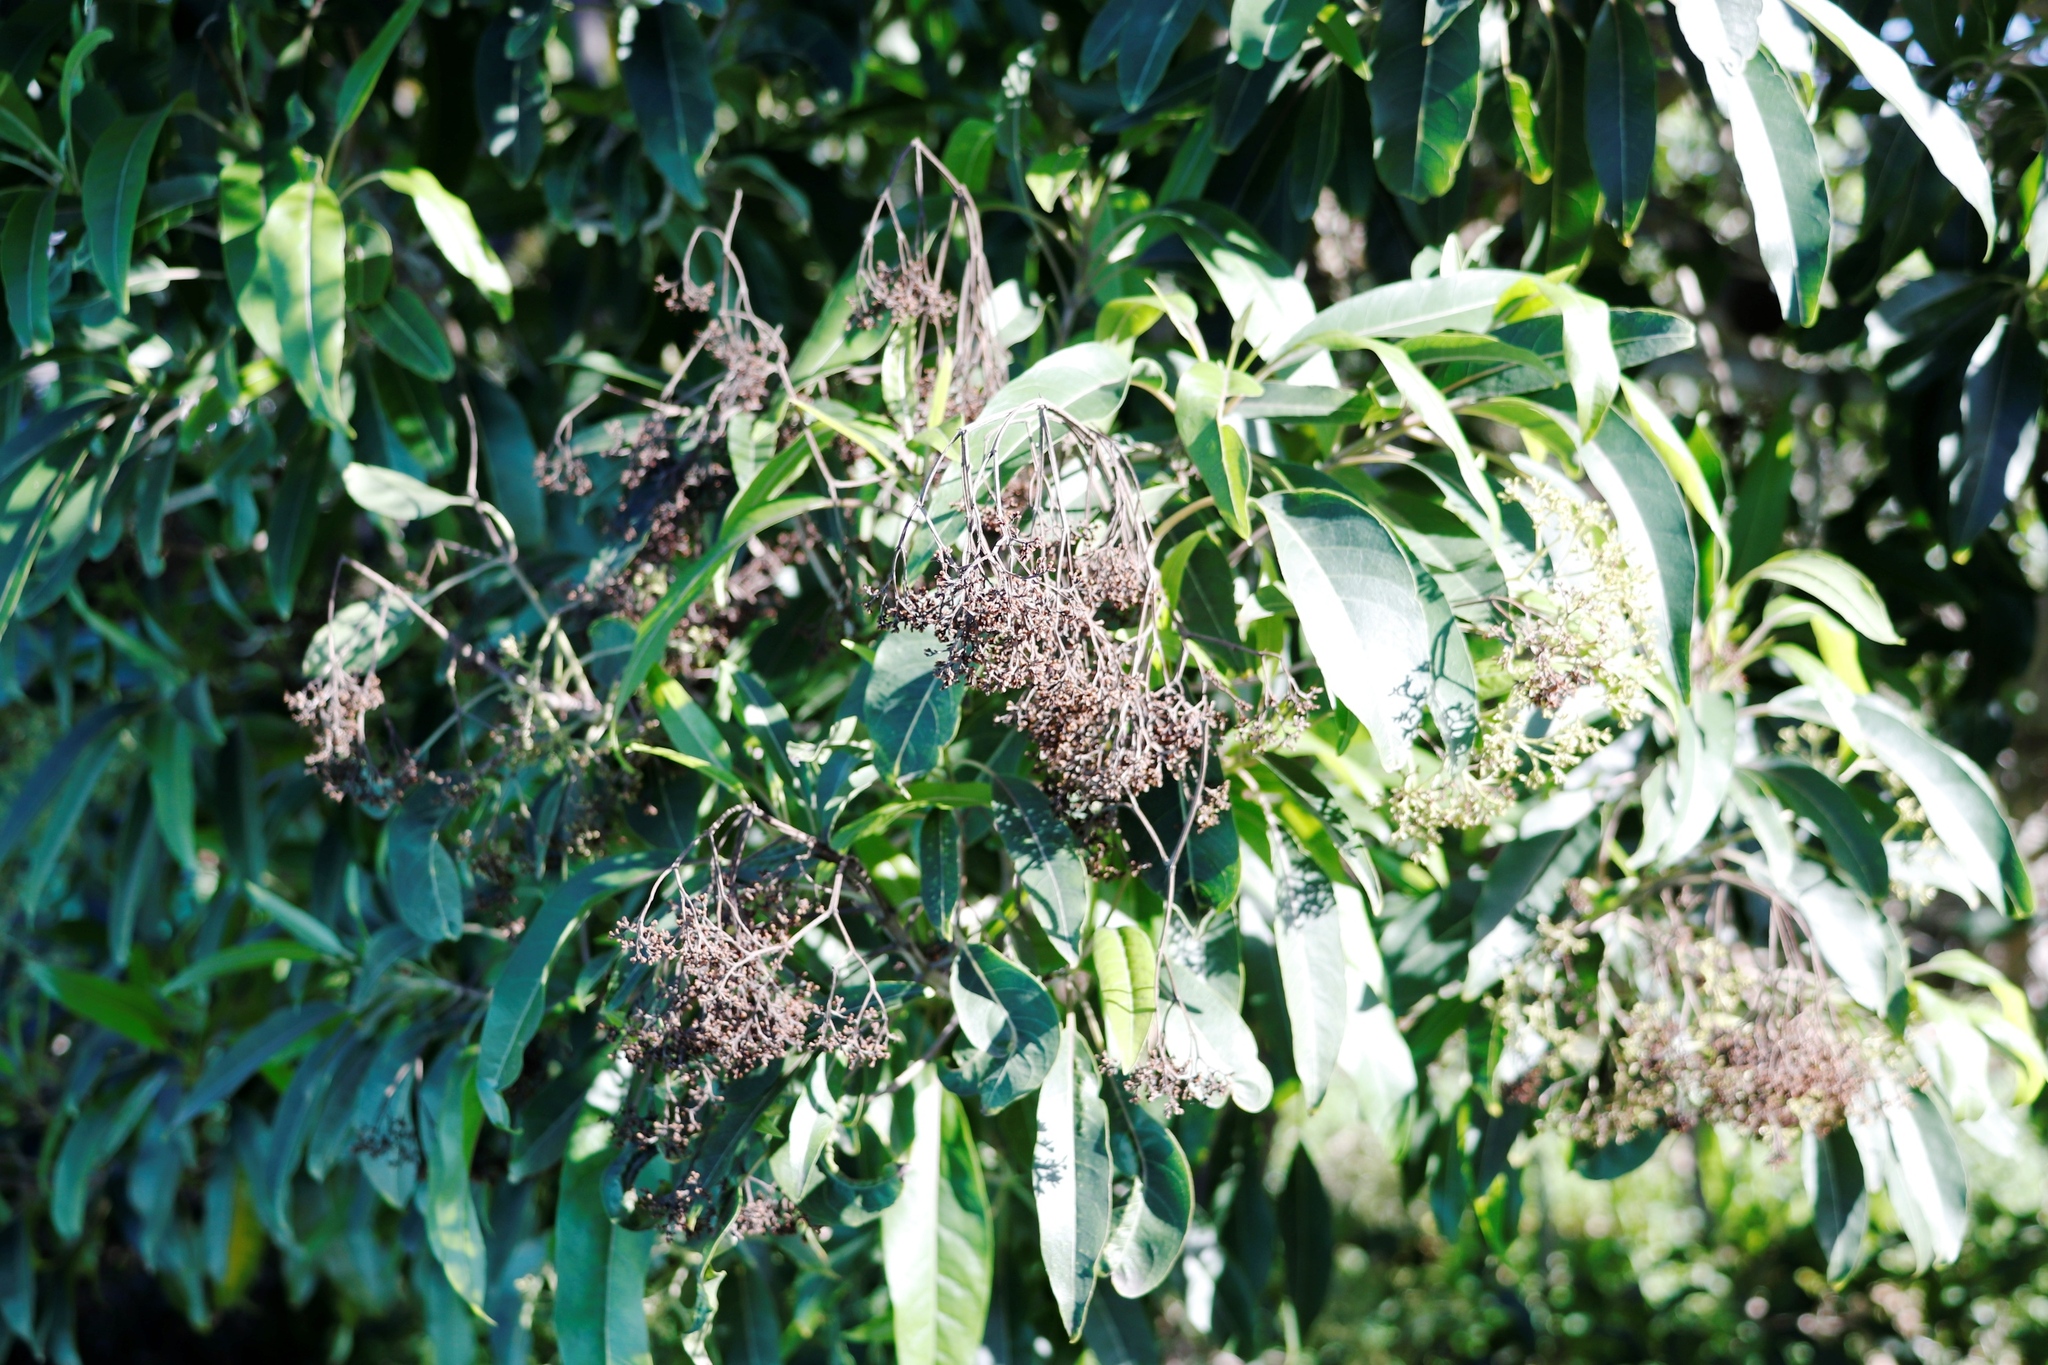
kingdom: Plantae
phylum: Tracheophyta
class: Magnoliopsida
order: Lamiales
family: Stilbaceae
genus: Nuxia
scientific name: Nuxia floribunda
